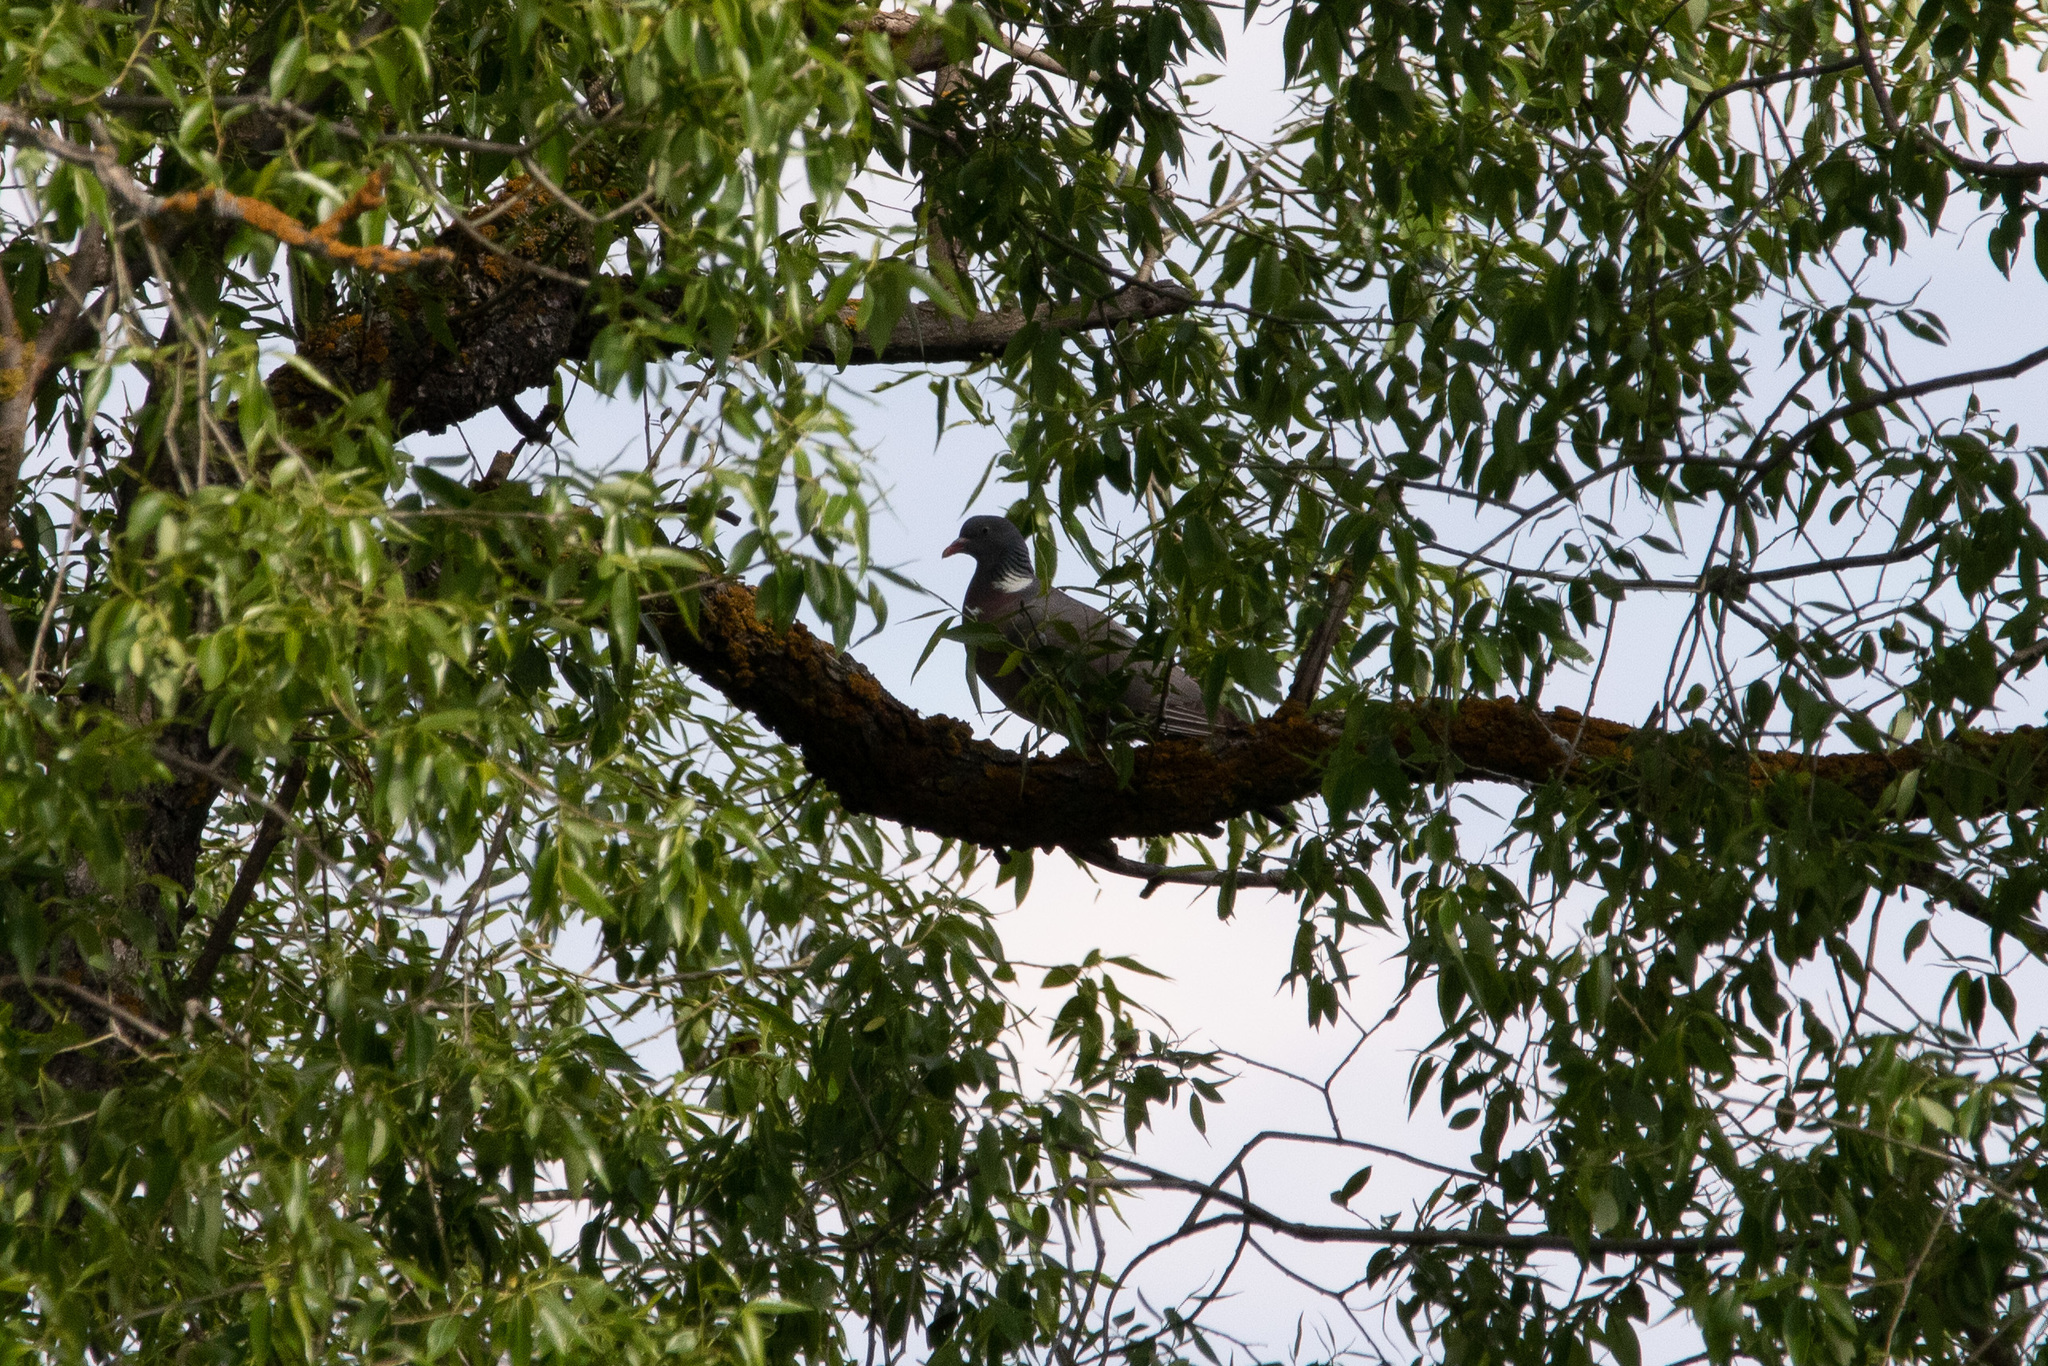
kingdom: Animalia
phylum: Chordata
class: Aves
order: Columbiformes
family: Columbidae
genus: Columba
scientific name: Columba palumbus
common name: Common wood pigeon
